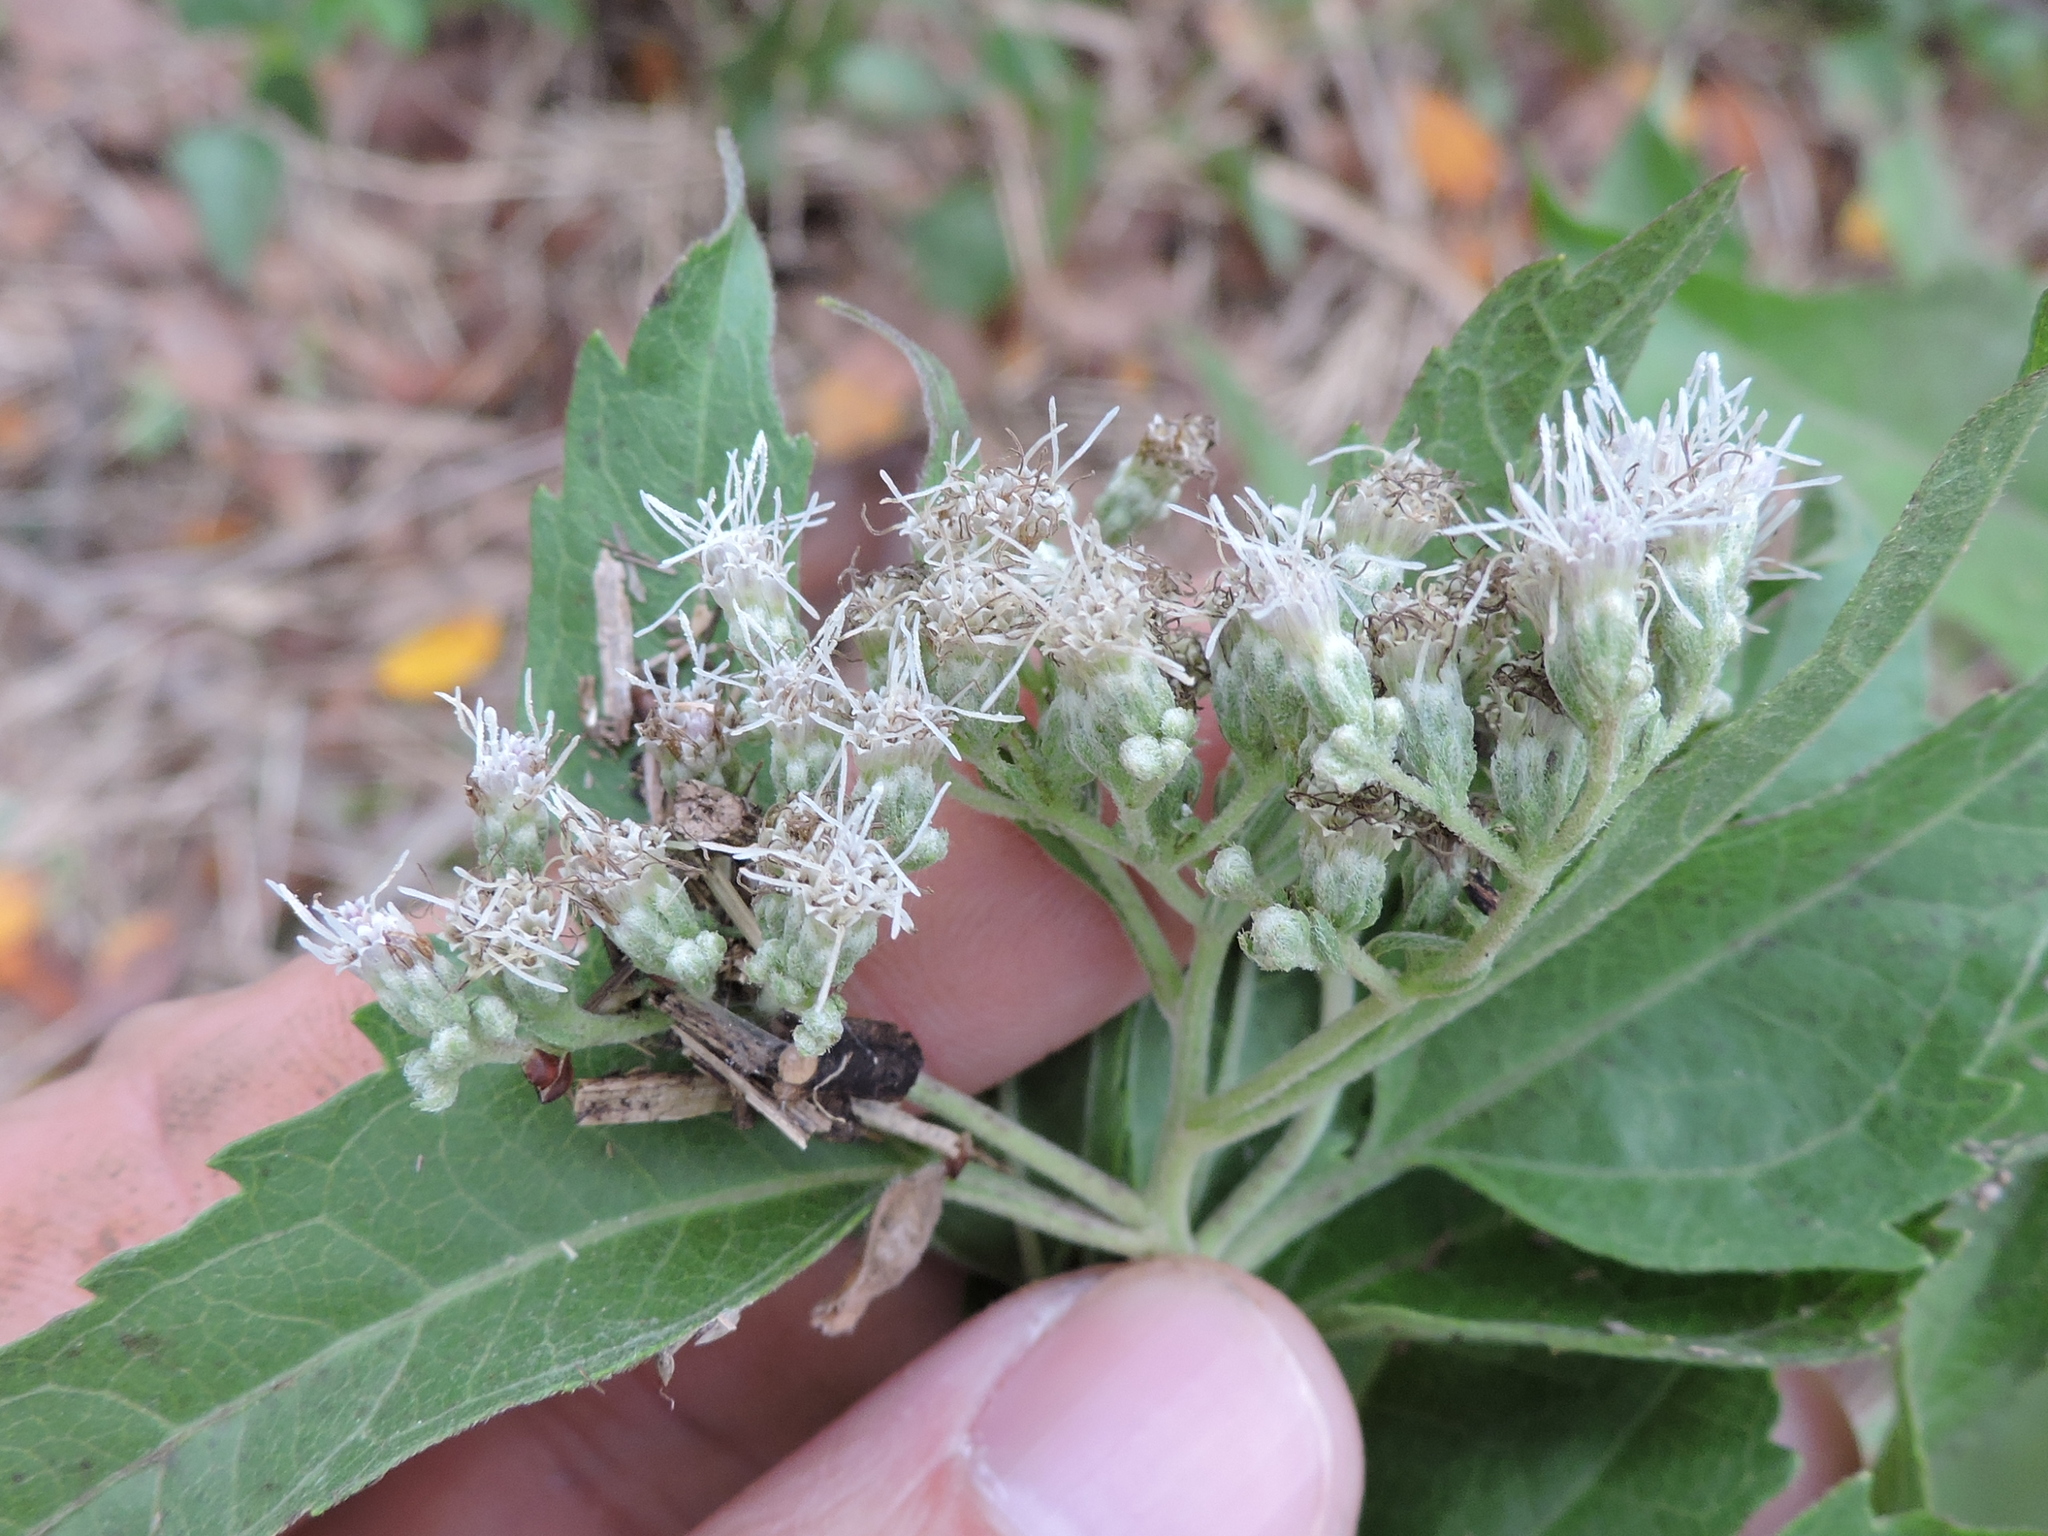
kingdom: Plantae
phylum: Tracheophyta
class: Magnoliopsida
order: Asterales
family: Asteraceae
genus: Eupatorium
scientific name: Eupatorium serotinum
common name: Late boneset
